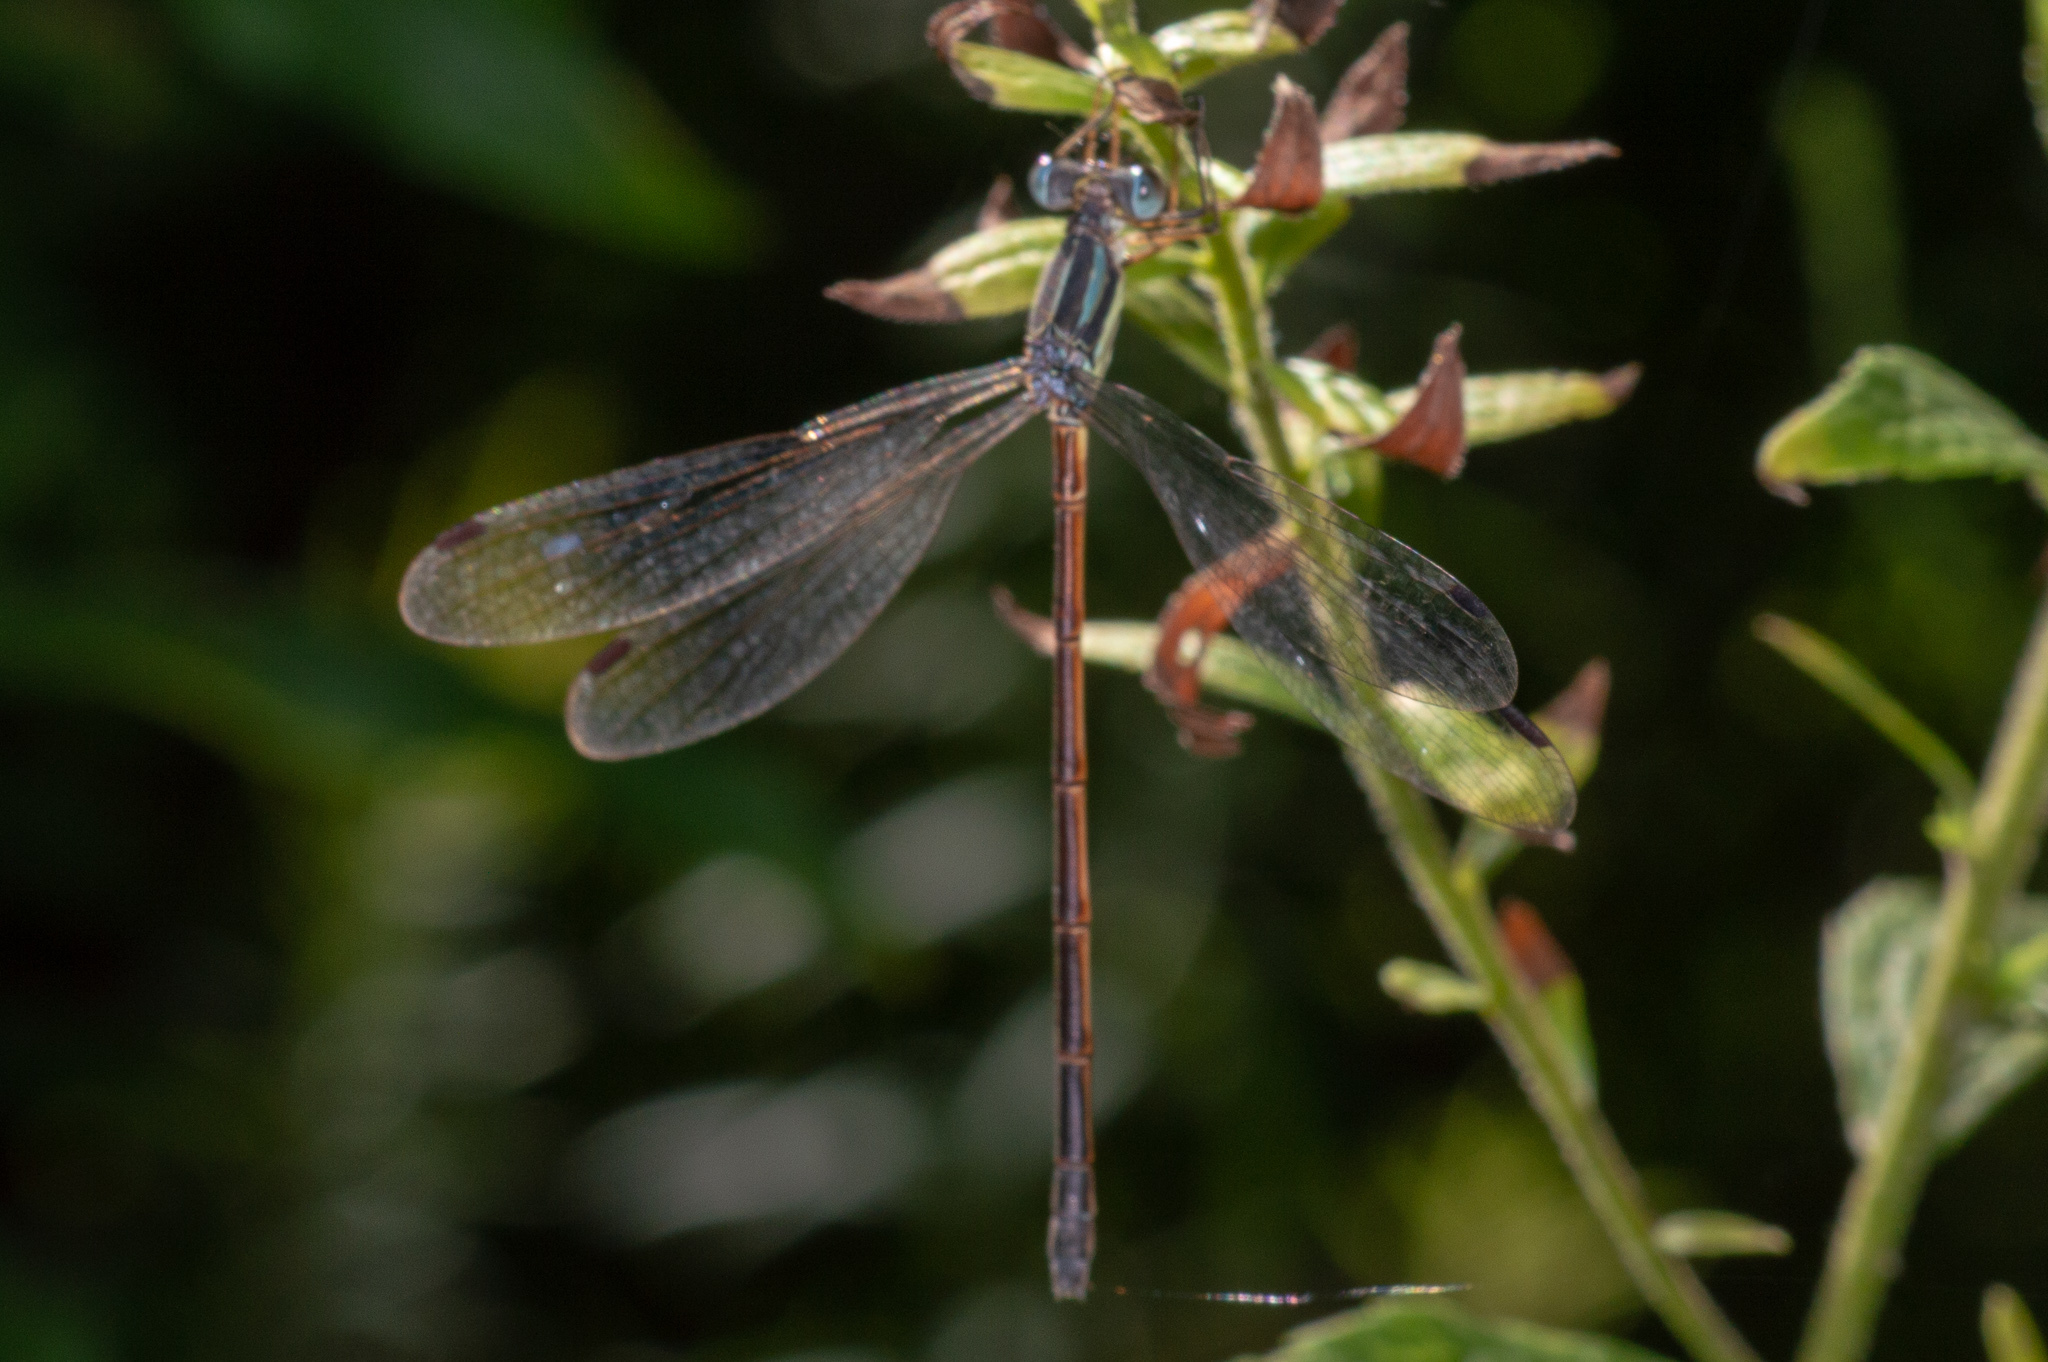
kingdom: Animalia
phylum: Arthropoda
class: Insecta
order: Odonata
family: Lestidae
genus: Lestes
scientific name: Lestes rectangularis
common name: Slender spreadwing
